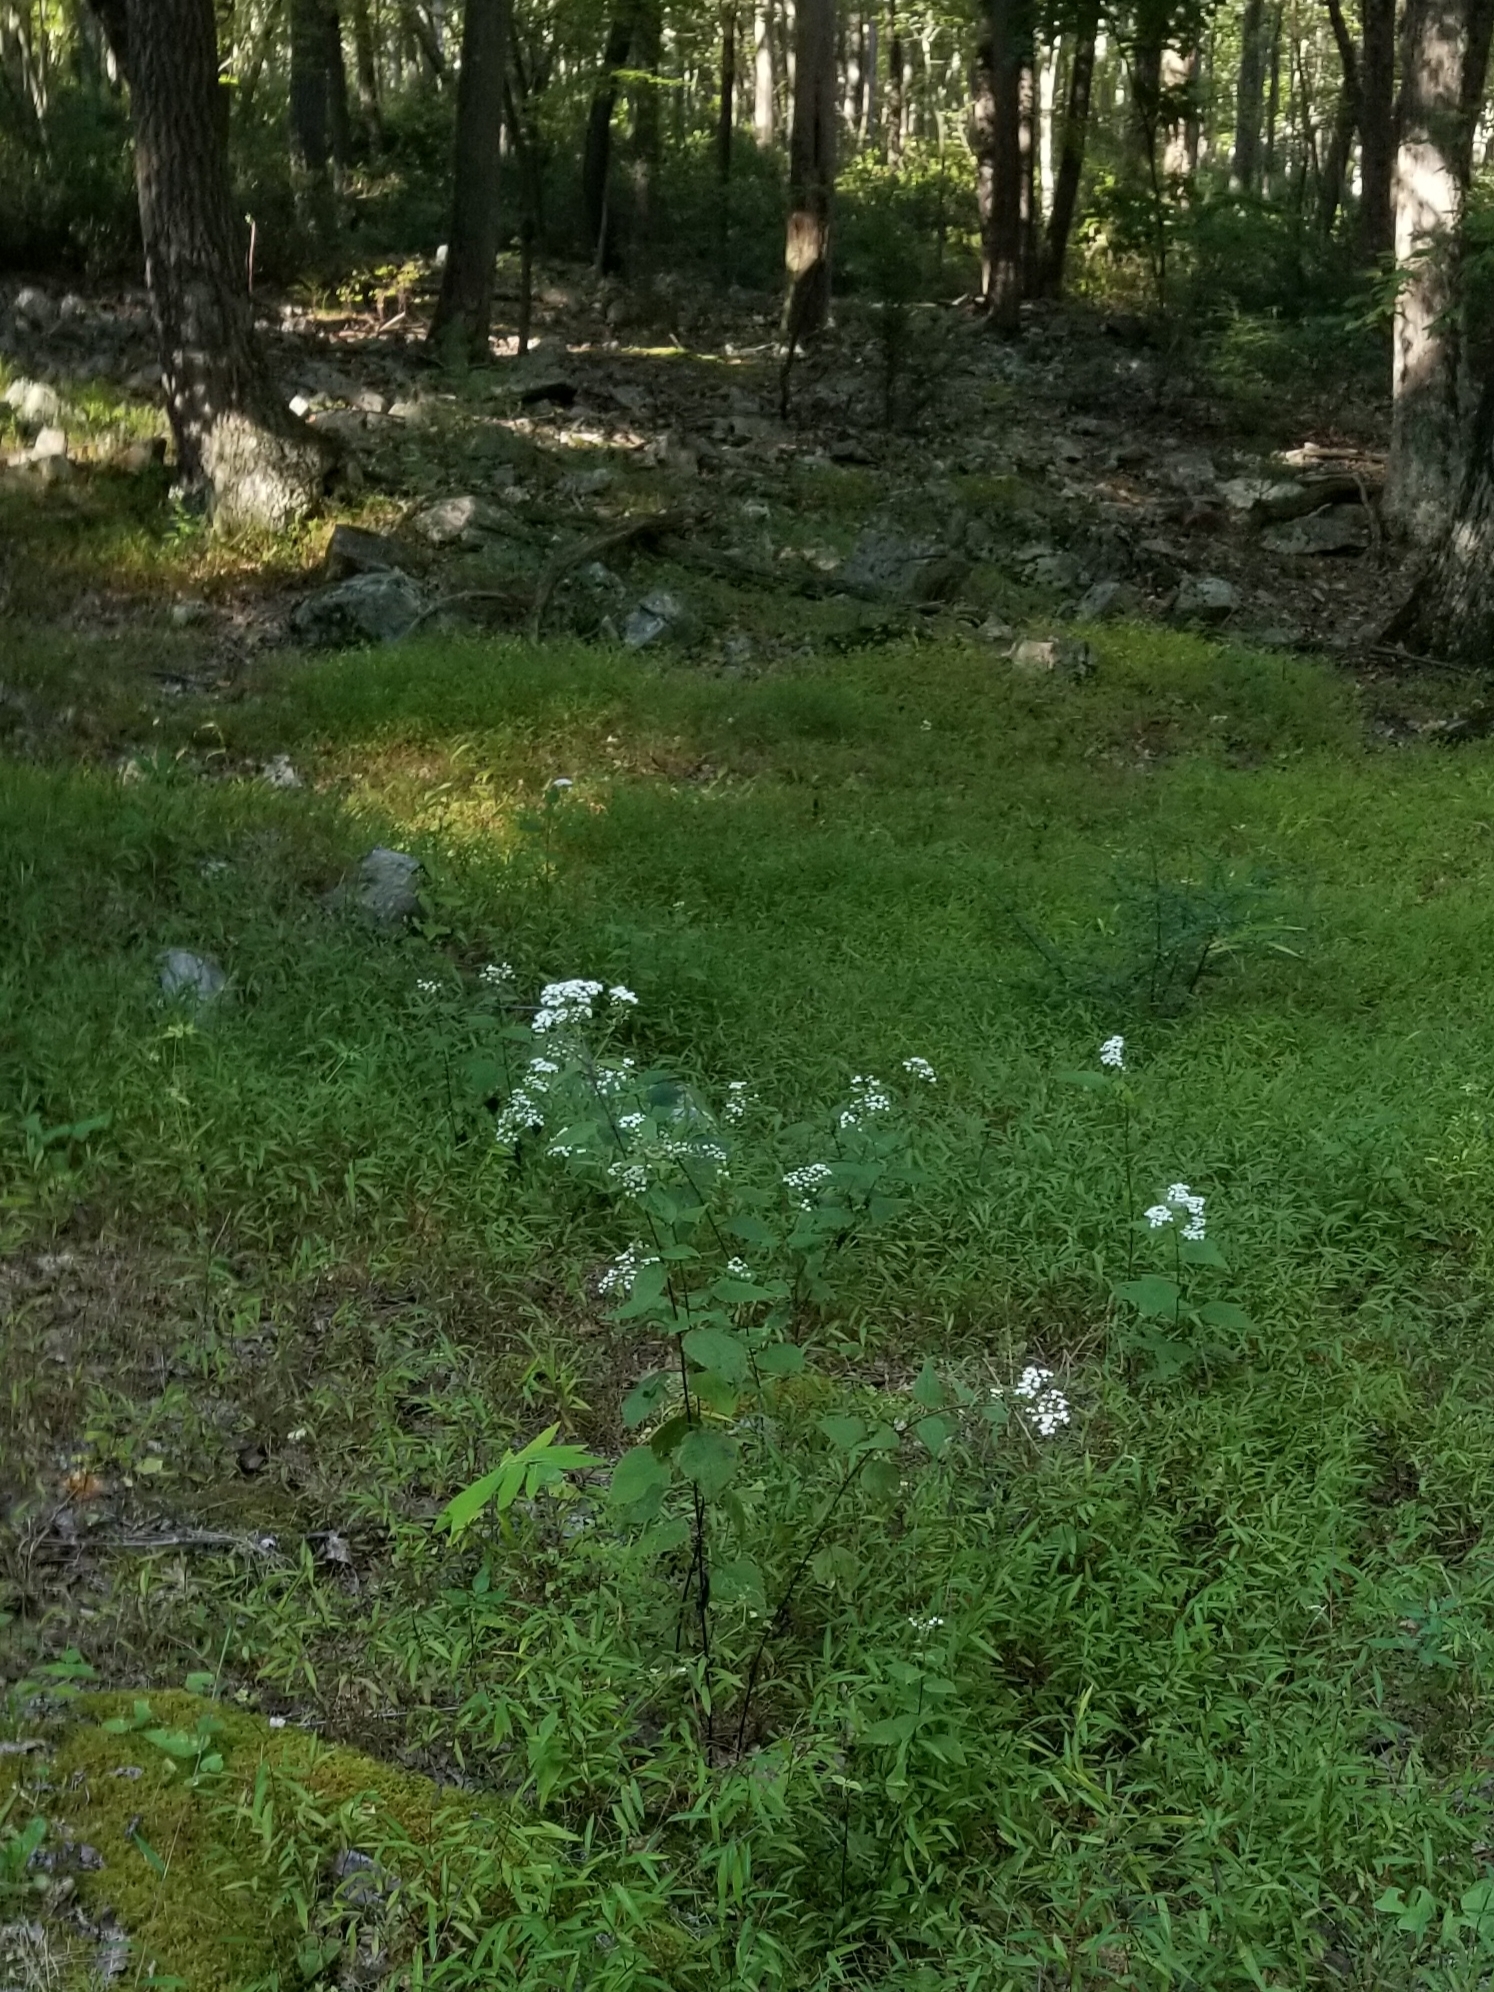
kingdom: Plantae
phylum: Tracheophyta
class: Magnoliopsida
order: Asterales
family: Asteraceae
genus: Ageratina
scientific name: Ageratina altissima
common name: White snakeroot
